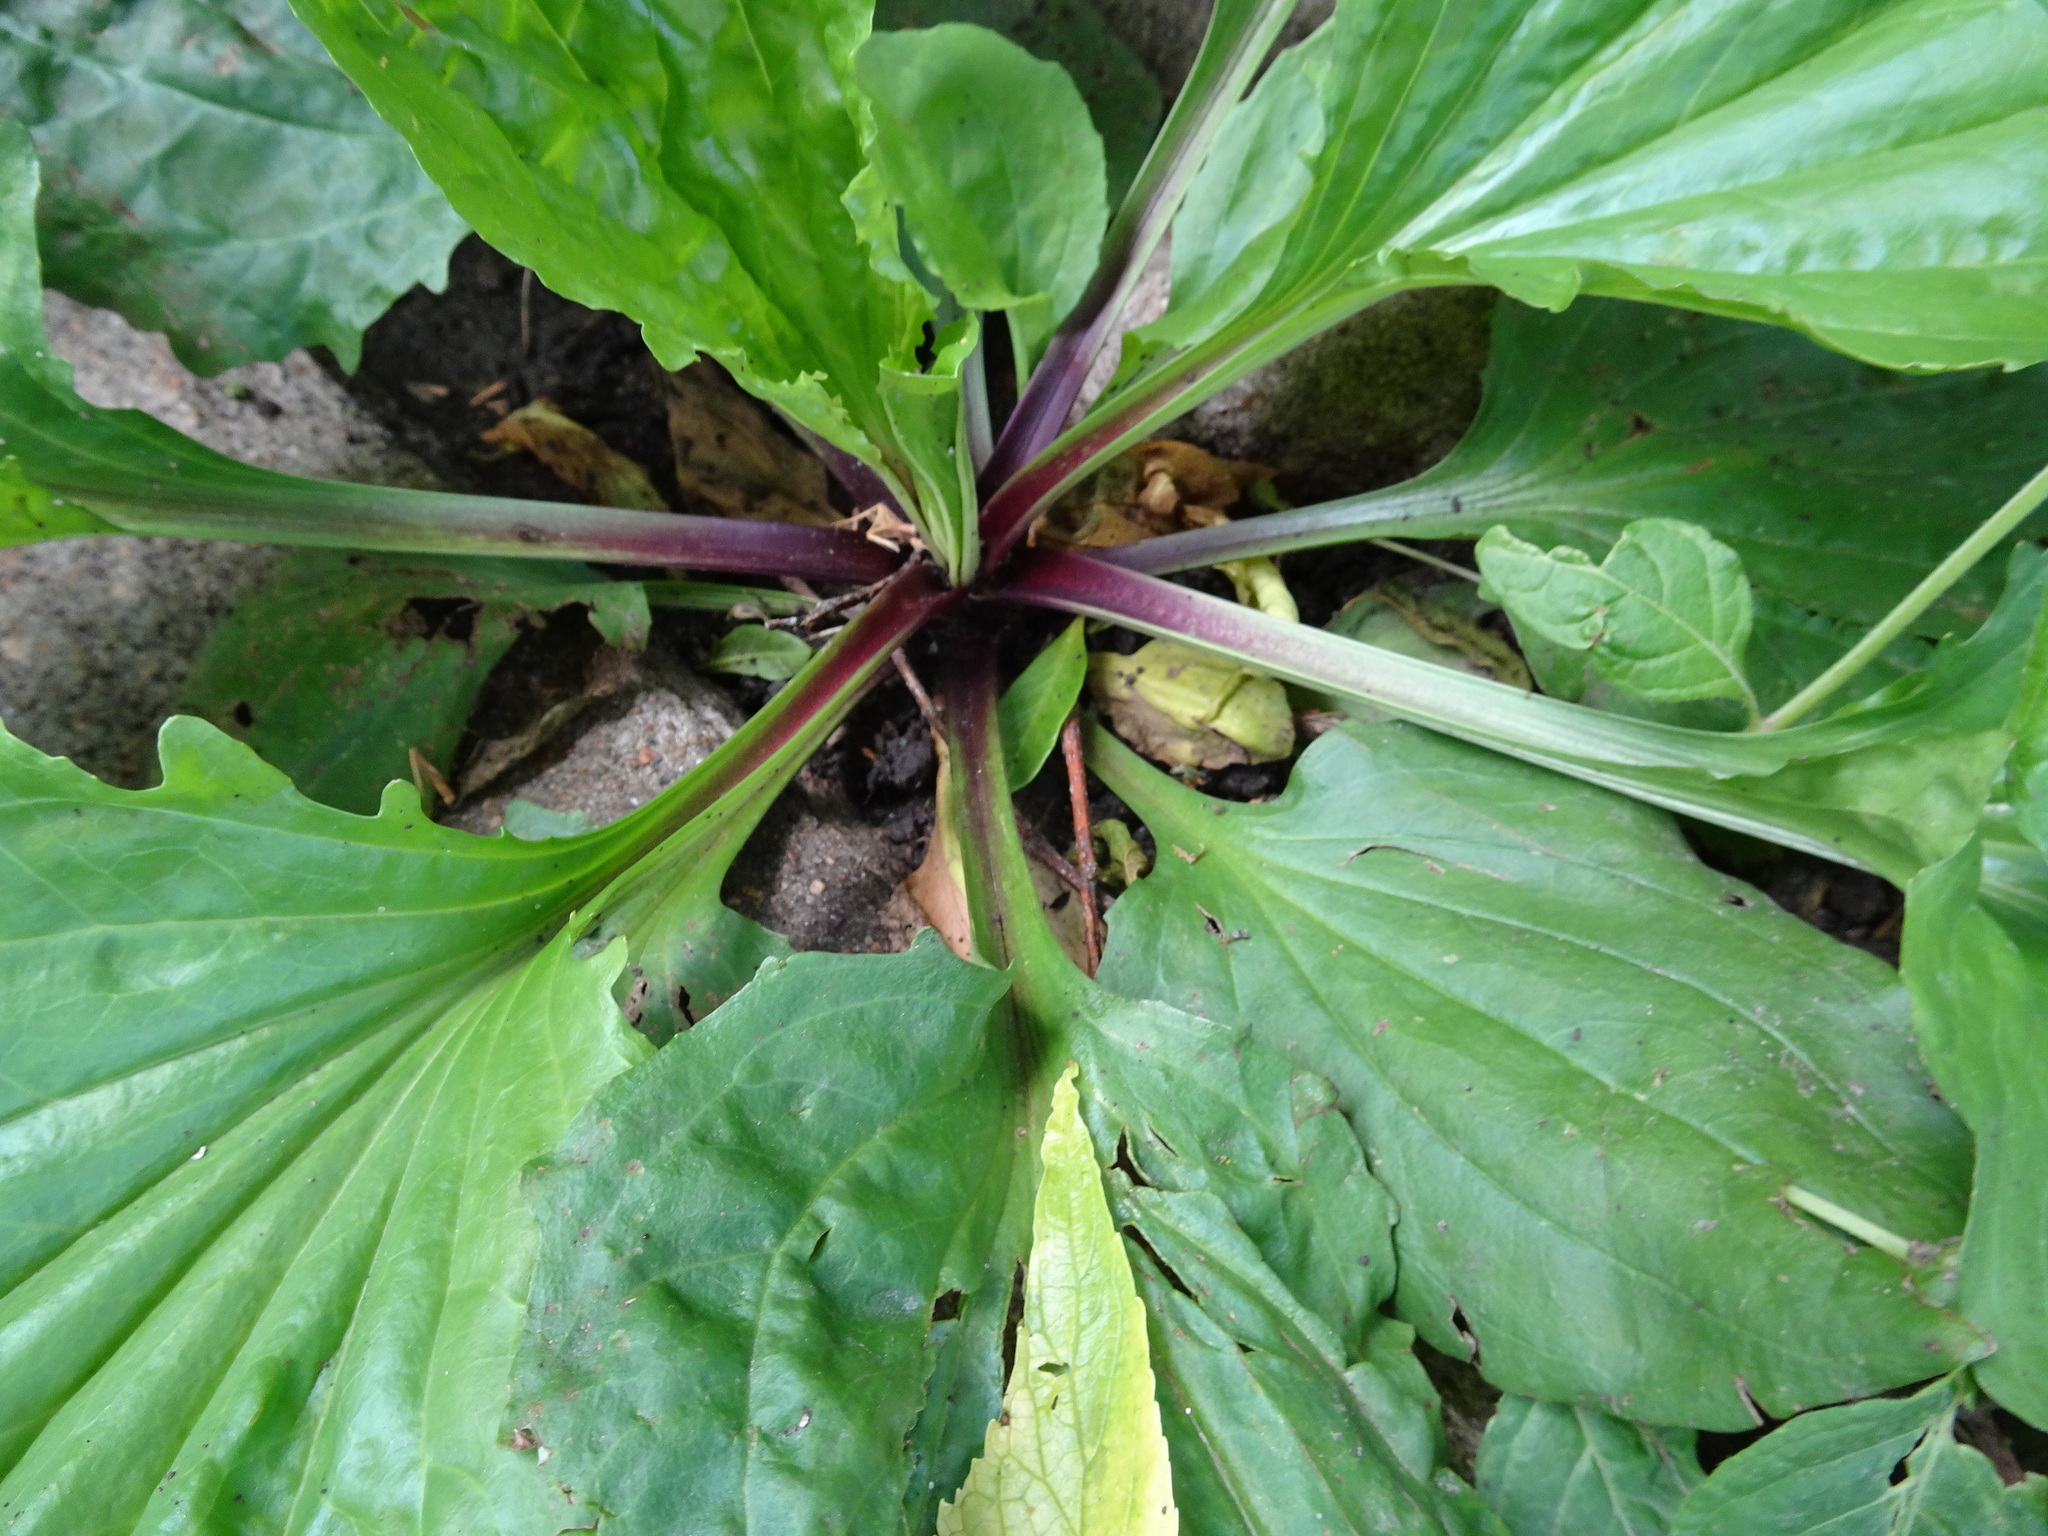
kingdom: Plantae
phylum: Tracheophyta
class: Magnoliopsida
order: Lamiales
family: Plantaginaceae
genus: Plantago
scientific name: Plantago rugelii
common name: American plantain
